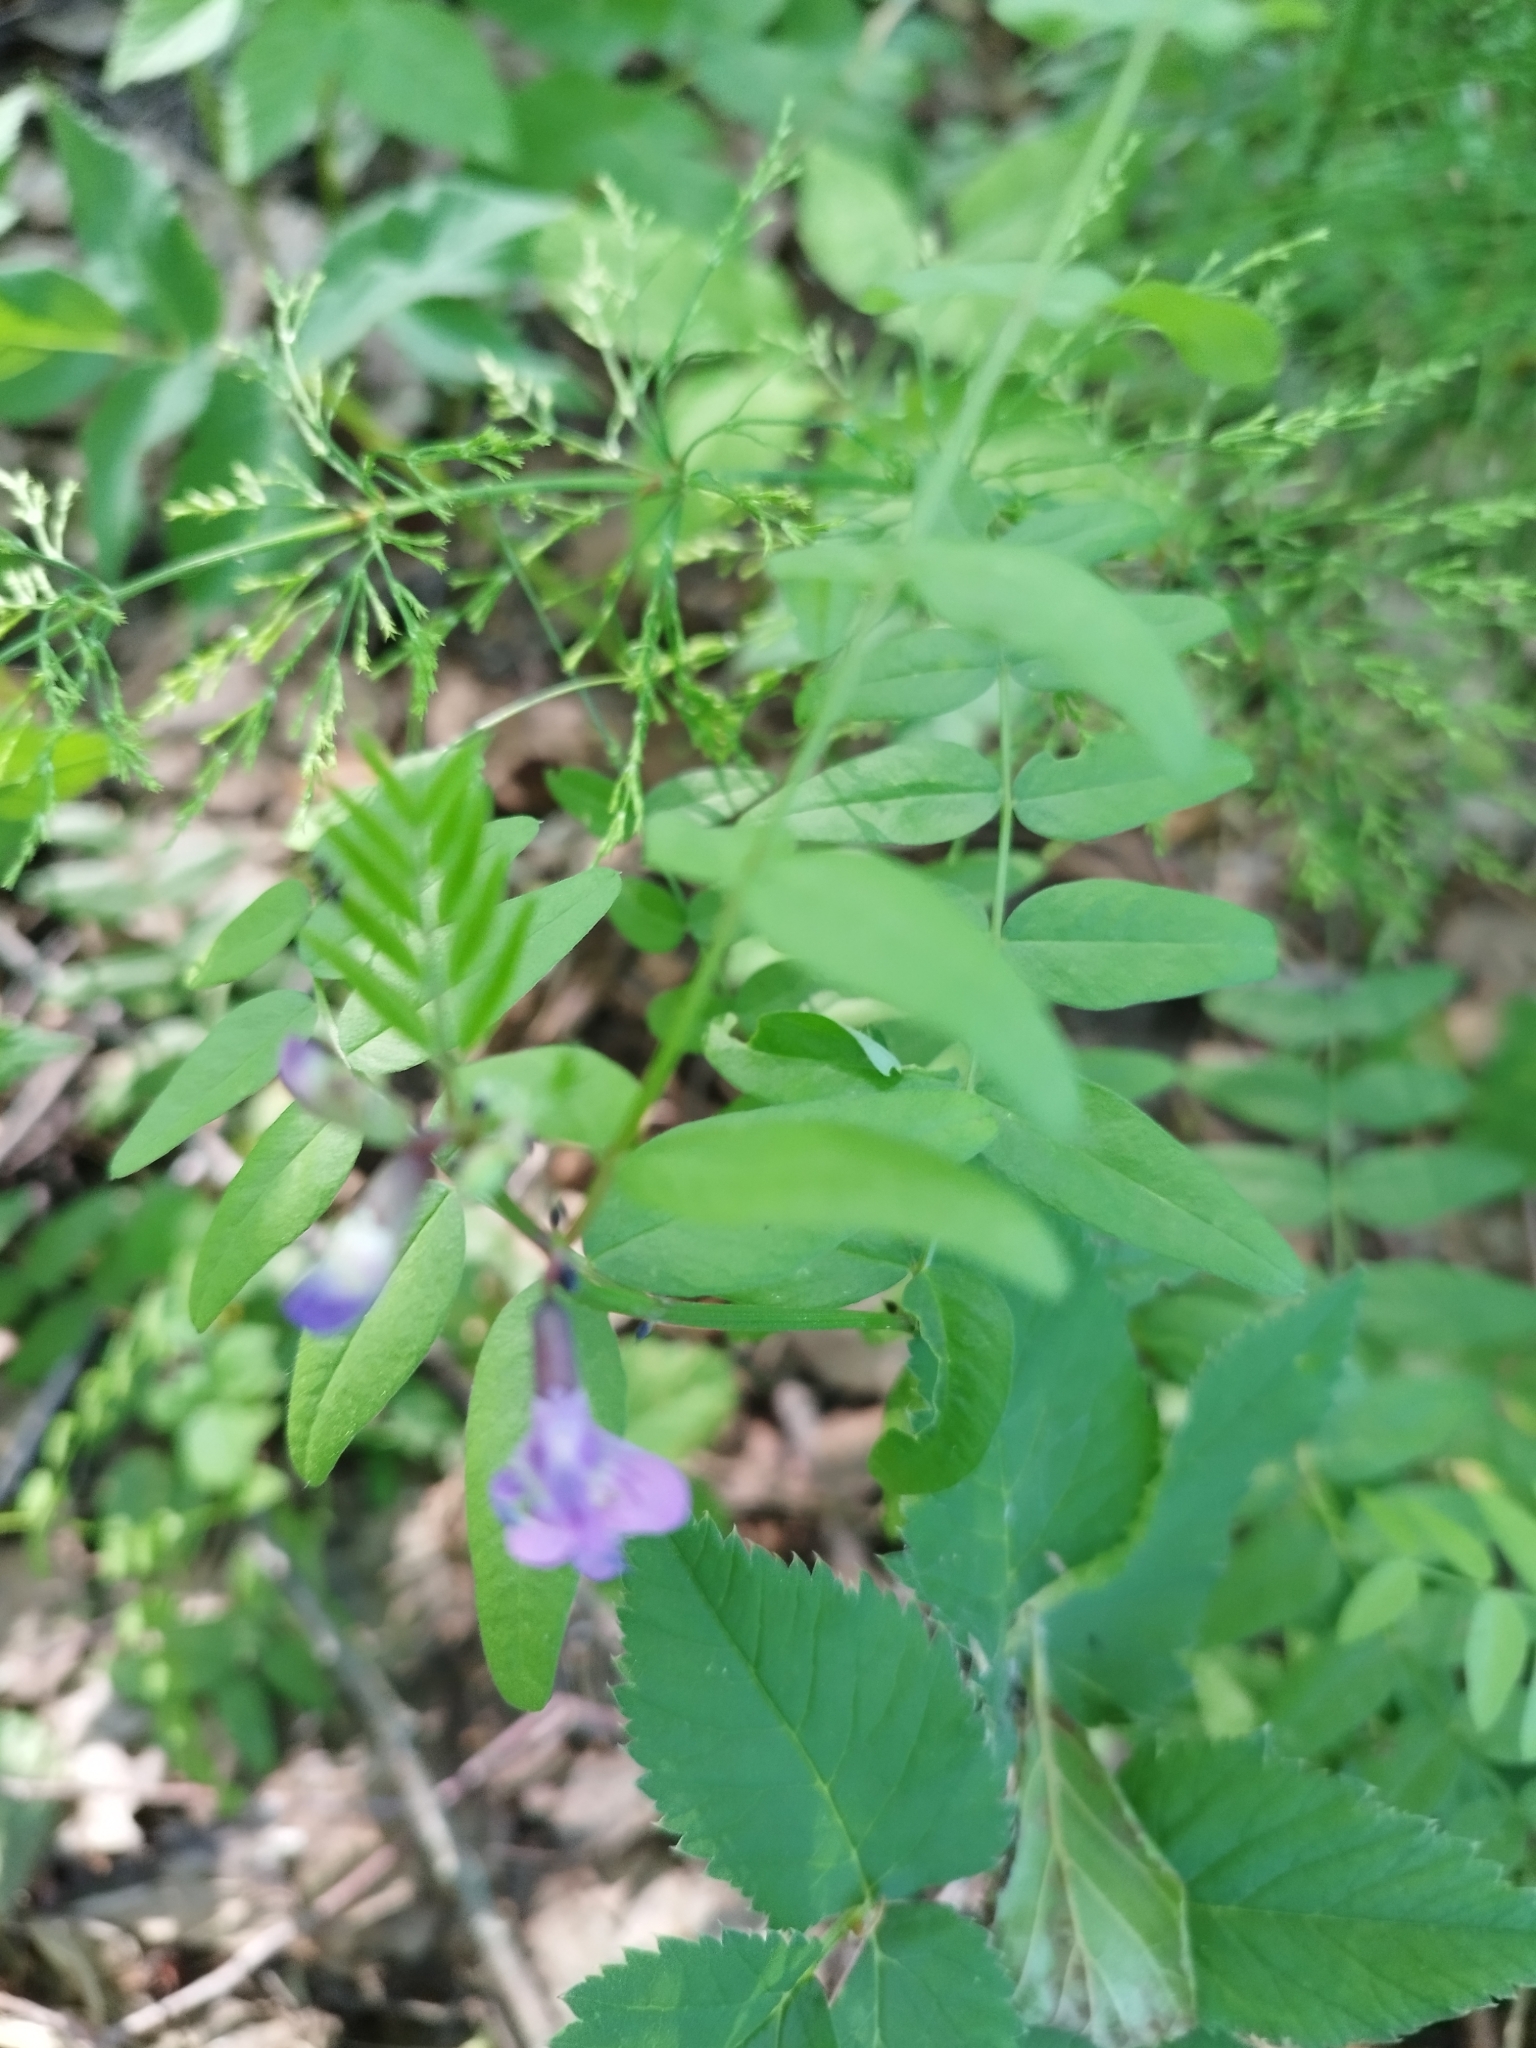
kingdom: Plantae
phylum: Tracheophyta
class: Magnoliopsida
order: Fabales
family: Fabaceae
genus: Vicia
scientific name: Vicia sepium
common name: Bush vetch
